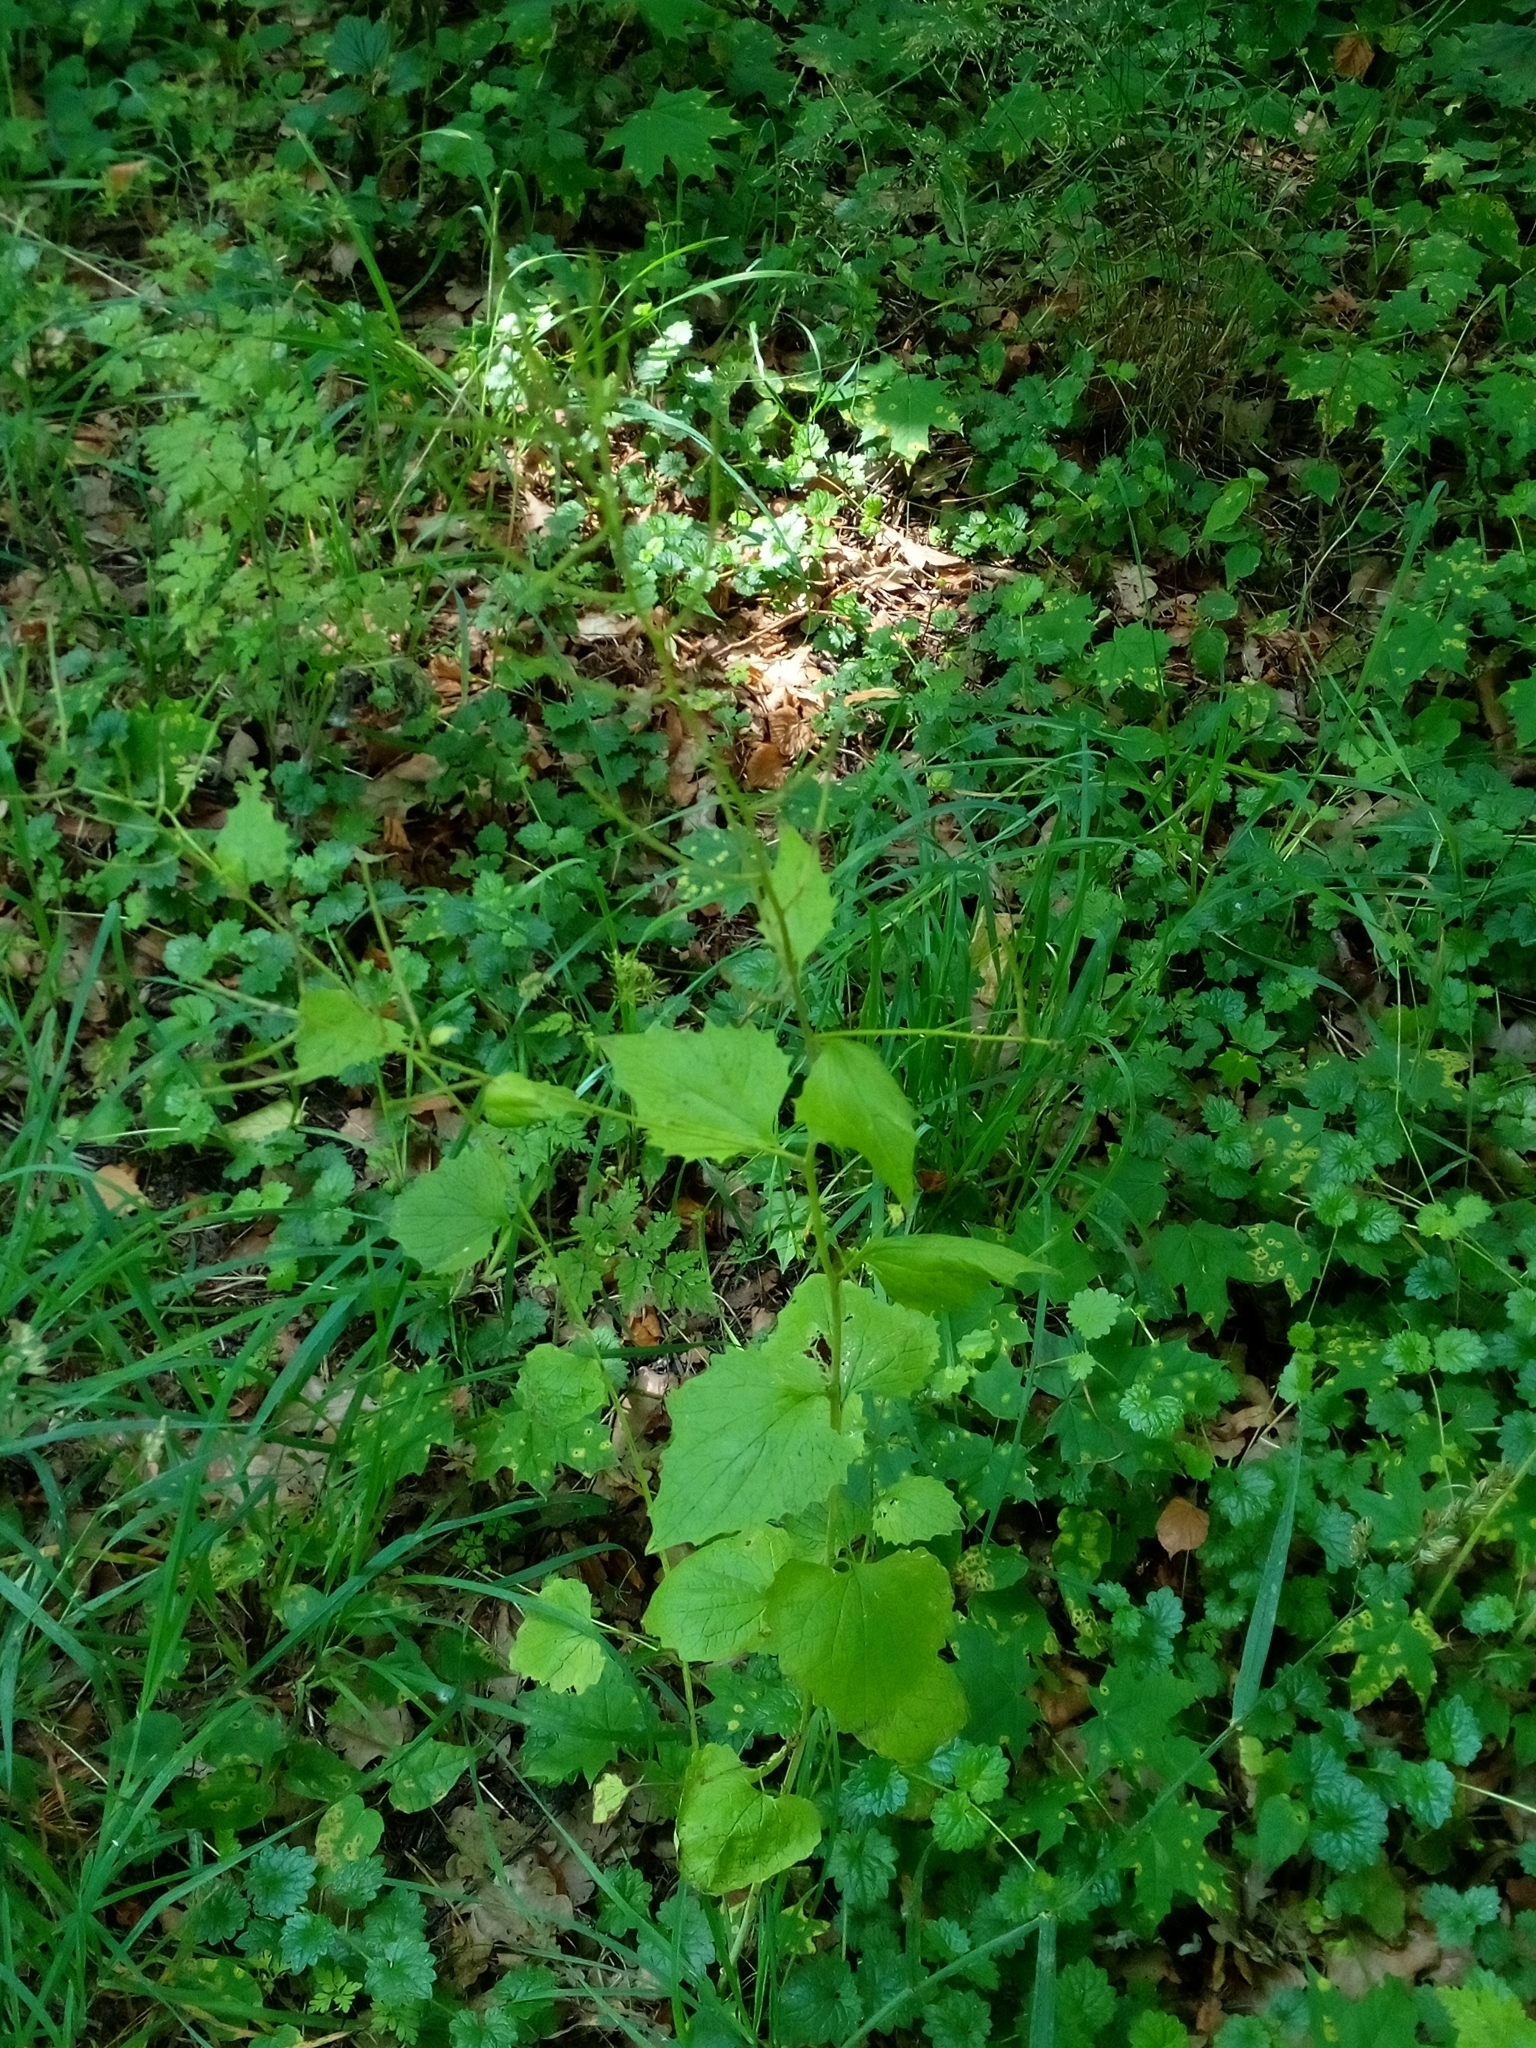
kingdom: Plantae
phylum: Tracheophyta
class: Magnoliopsida
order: Brassicales
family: Brassicaceae
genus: Alliaria
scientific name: Alliaria petiolata
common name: Garlic mustard
